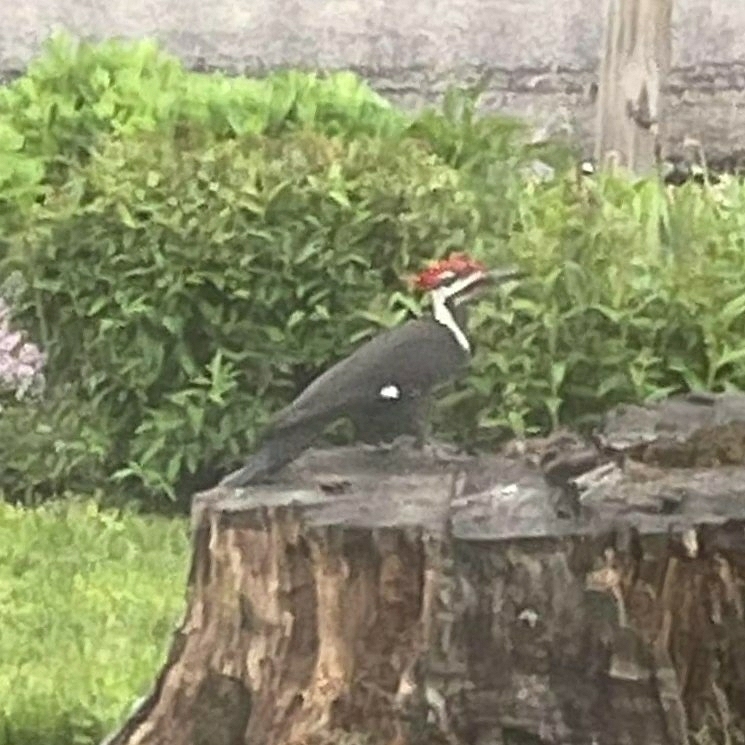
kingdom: Animalia
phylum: Chordata
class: Aves
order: Piciformes
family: Picidae
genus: Dryocopus
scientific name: Dryocopus pileatus
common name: Pileated woodpecker
